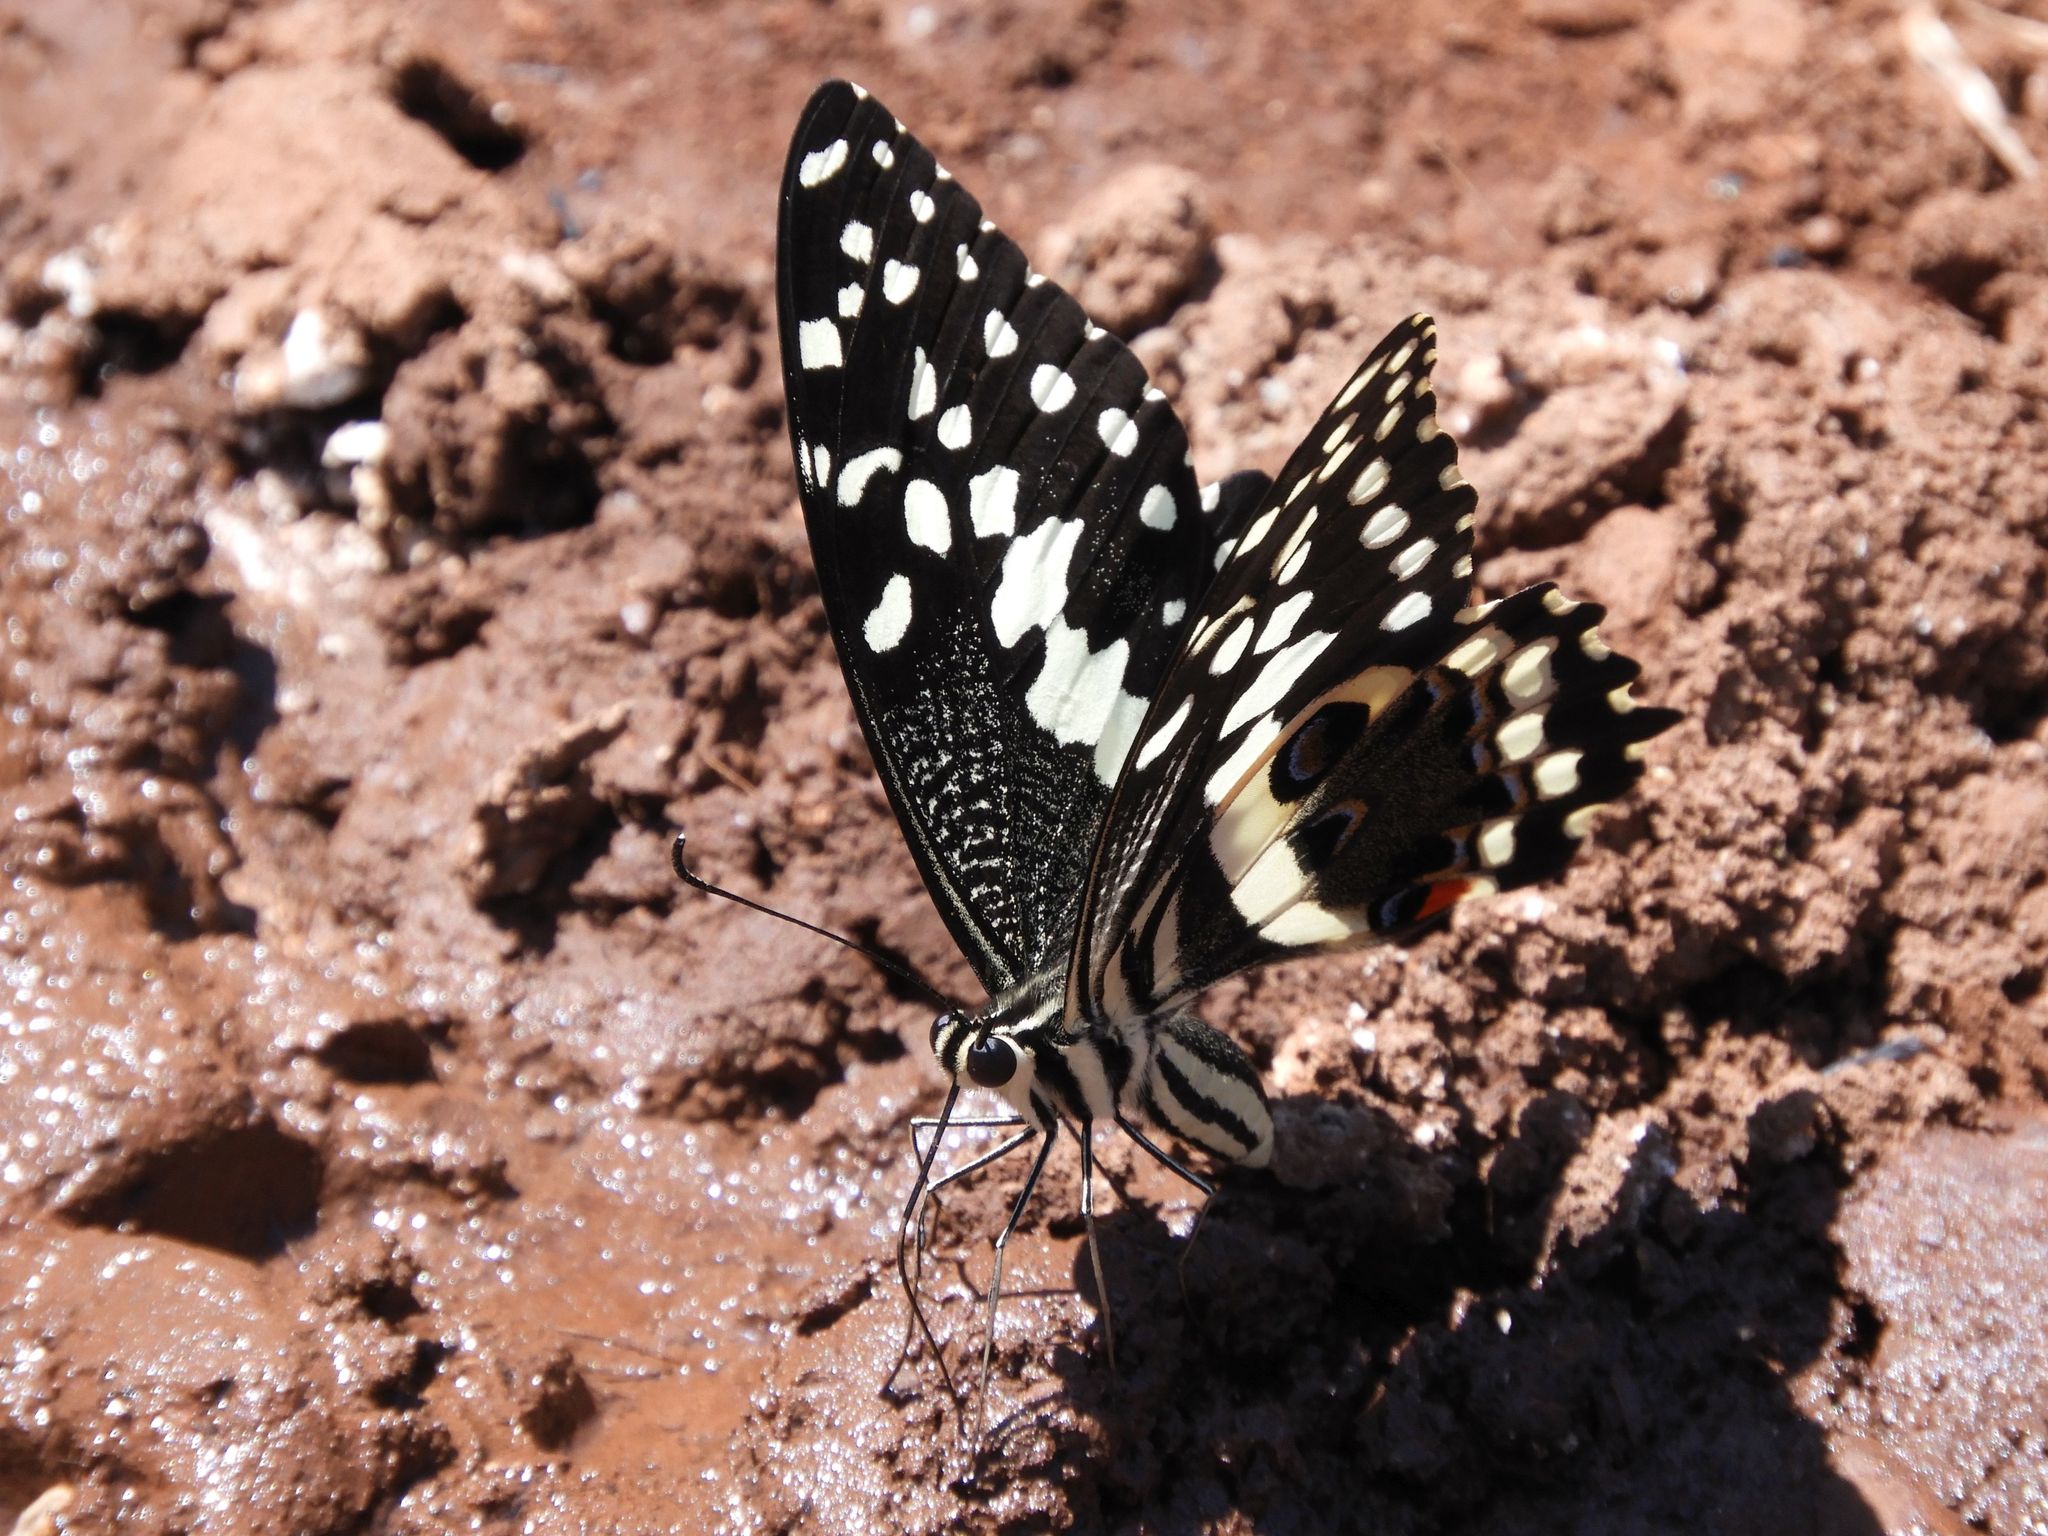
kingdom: Animalia
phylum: Arthropoda
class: Insecta
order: Lepidoptera
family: Papilionidae
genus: Papilio
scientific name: Papilio demodocus
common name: Christmas butterfly
